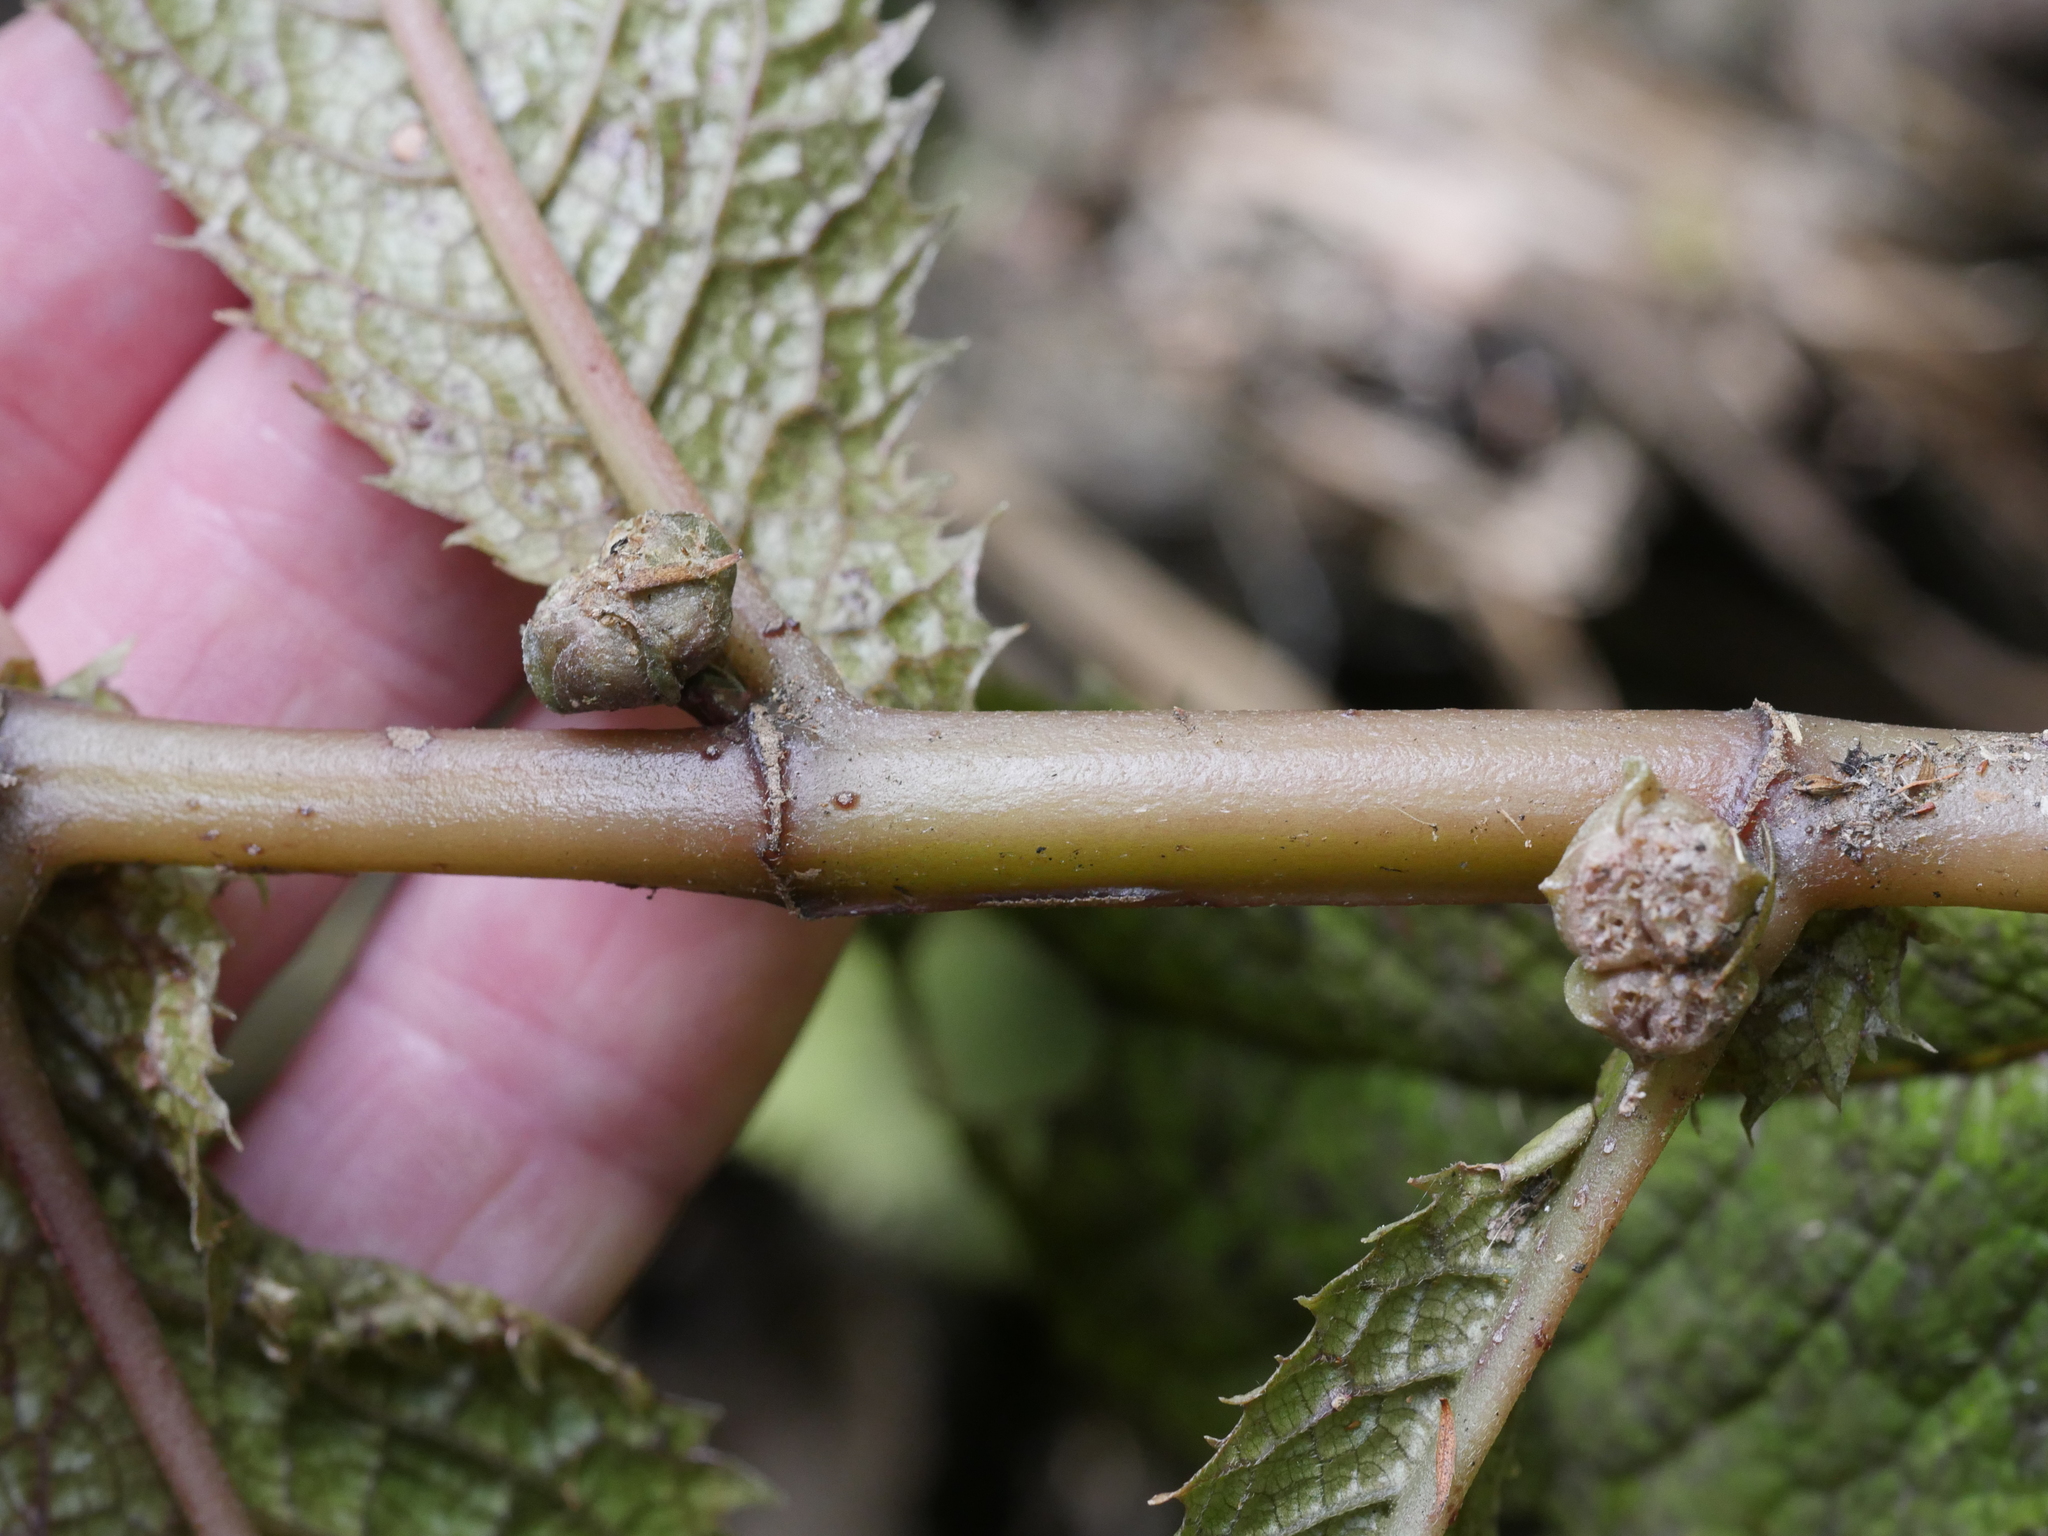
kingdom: Plantae
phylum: Tracheophyta
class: Magnoliopsida
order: Rosales
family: Urticaceae
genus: Elatostema
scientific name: Elatostema rugosum
